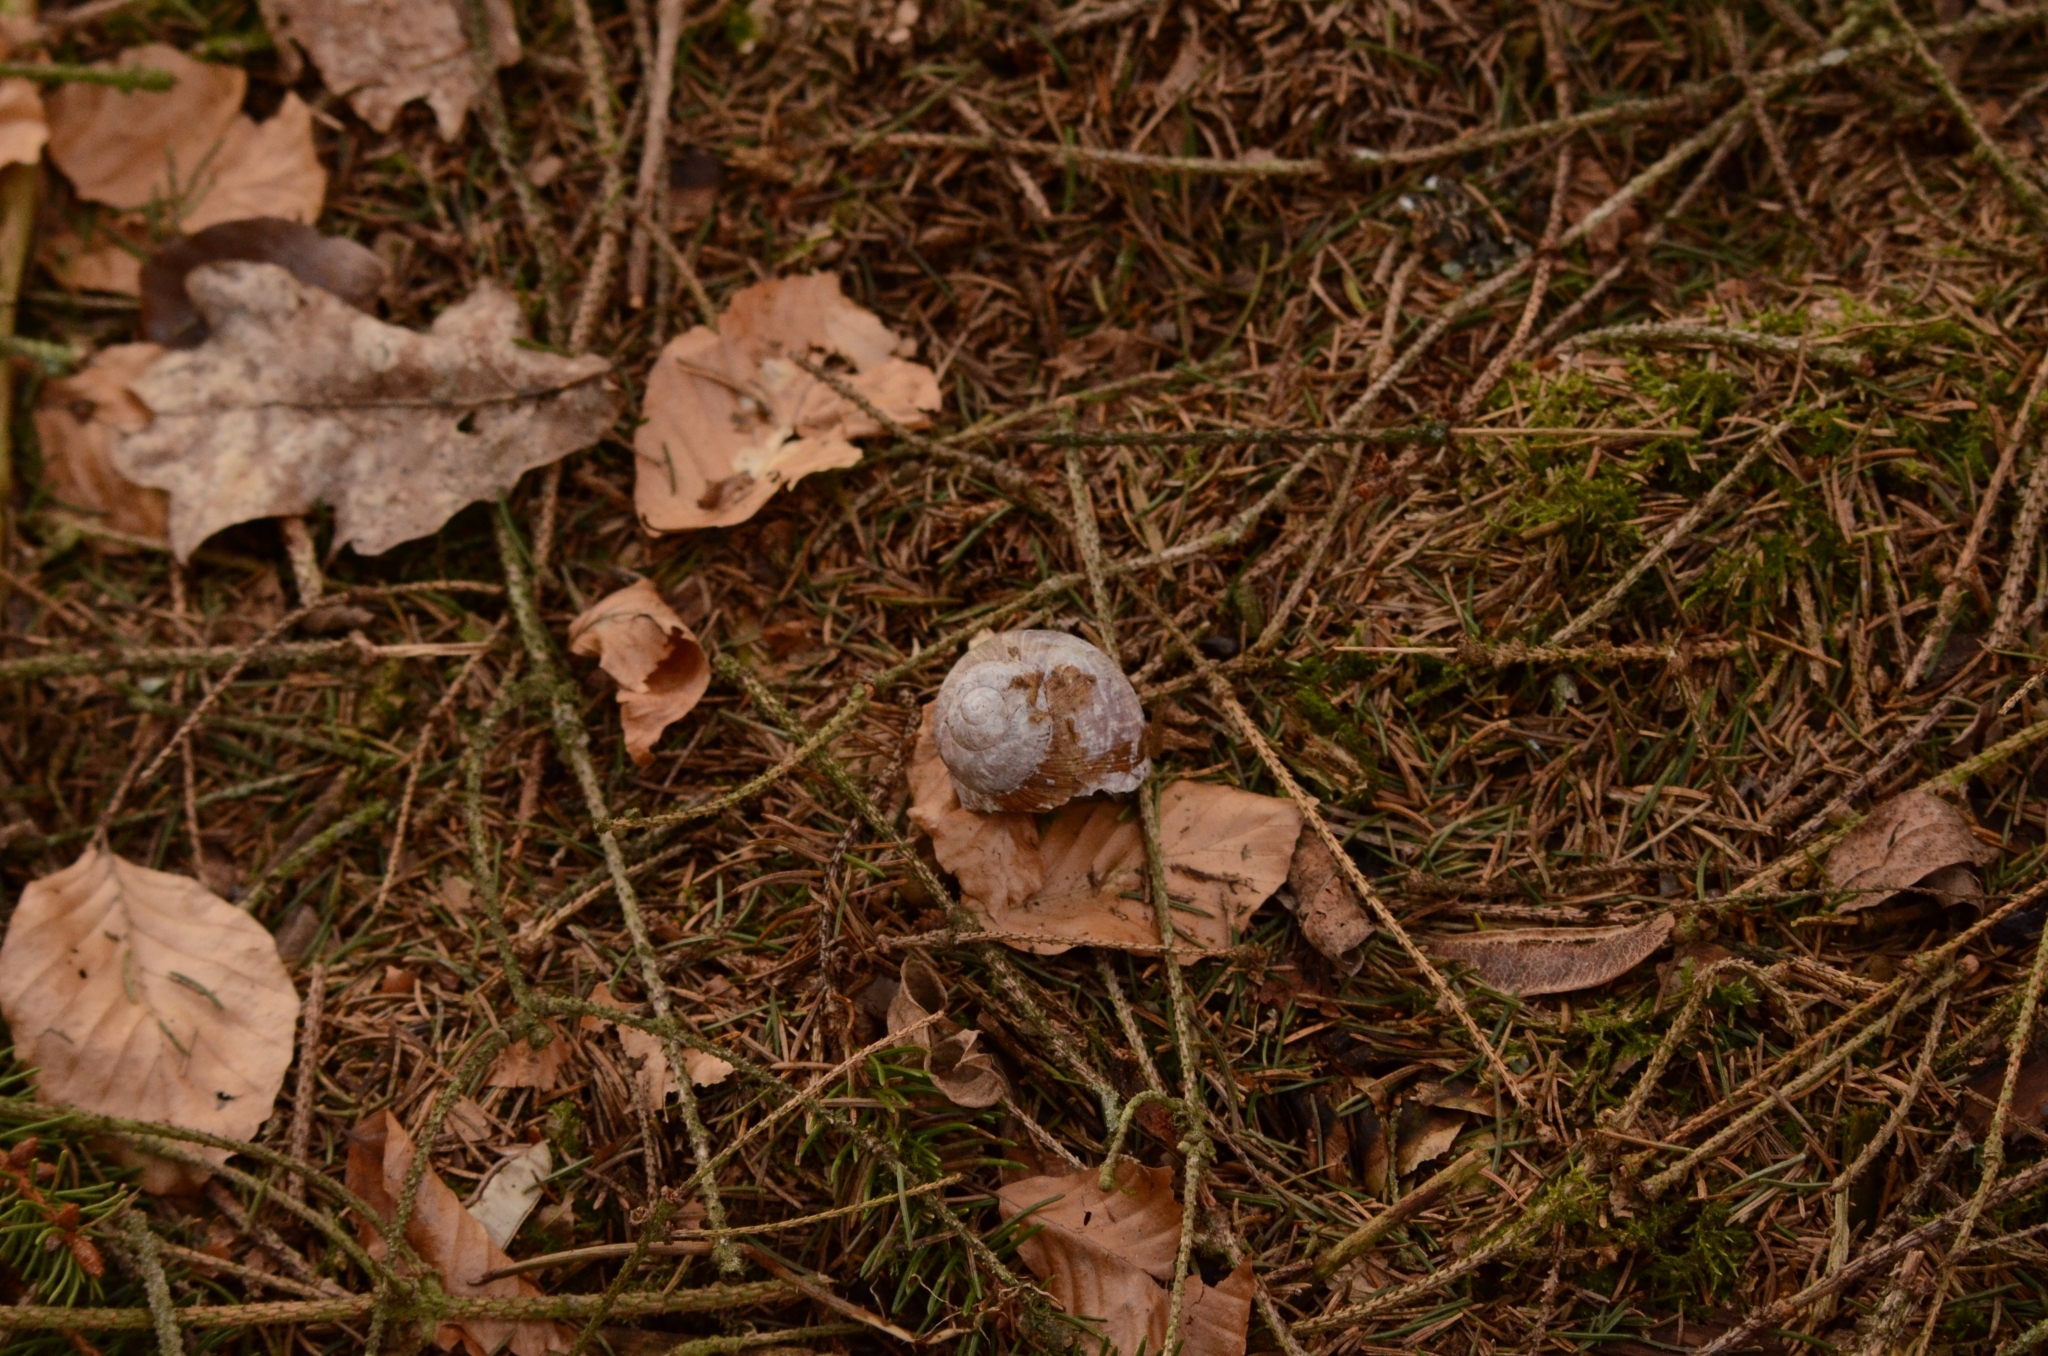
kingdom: Animalia
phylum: Mollusca
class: Gastropoda
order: Stylommatophora
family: Helicidae
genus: Helix
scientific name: Helix pomatia
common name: Roman snail
